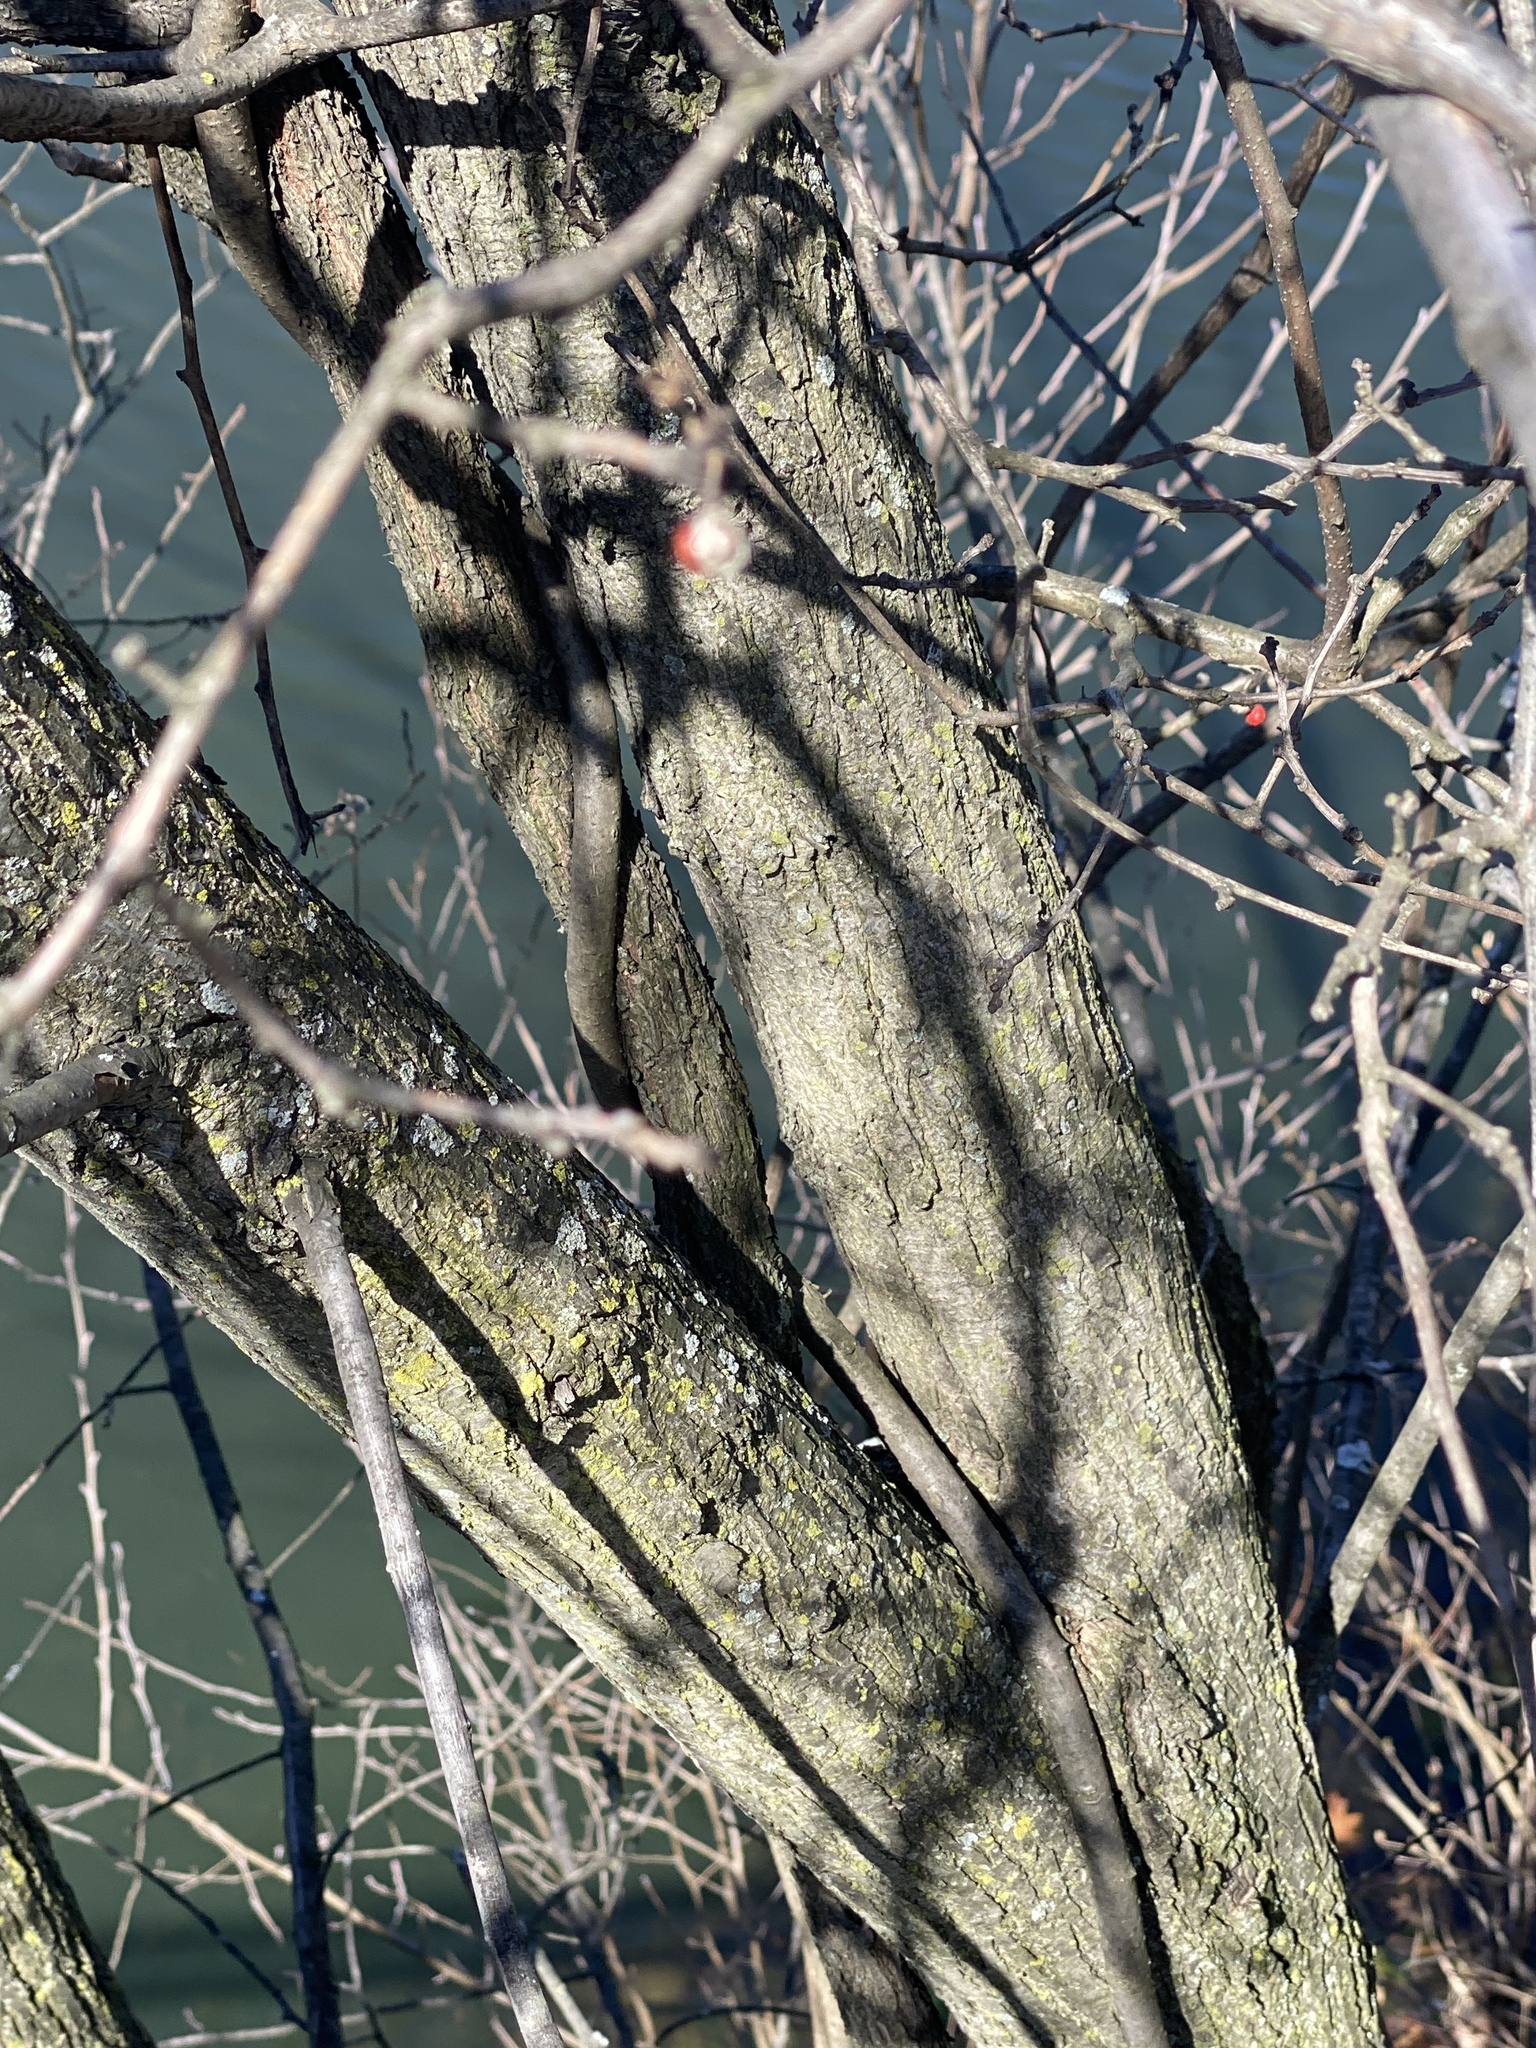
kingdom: Plantae
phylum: Tracheophyta
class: Magnoliopsida
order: Rosales
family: Ulmaceae
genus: Ulmus
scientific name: Ulmus americana
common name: American elm
